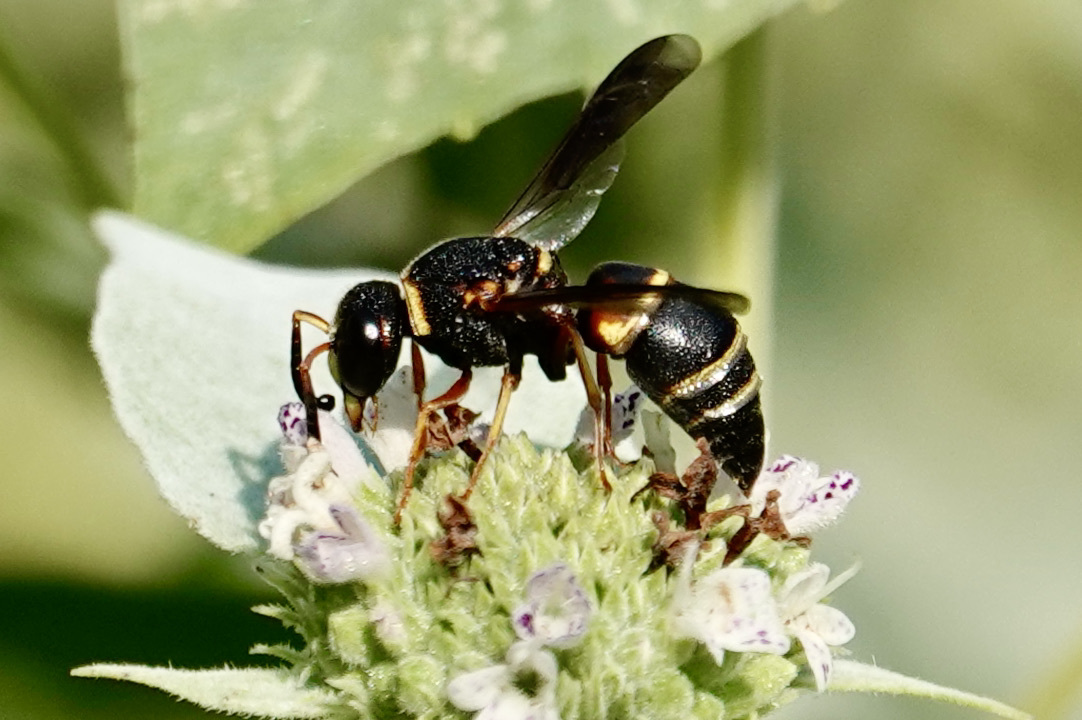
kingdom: Animalia
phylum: Arthropoda
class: Insecta
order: Hymenoptera
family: Eumenidae
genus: Euodynerus
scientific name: Euodynerus hidalgo
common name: Wasp
